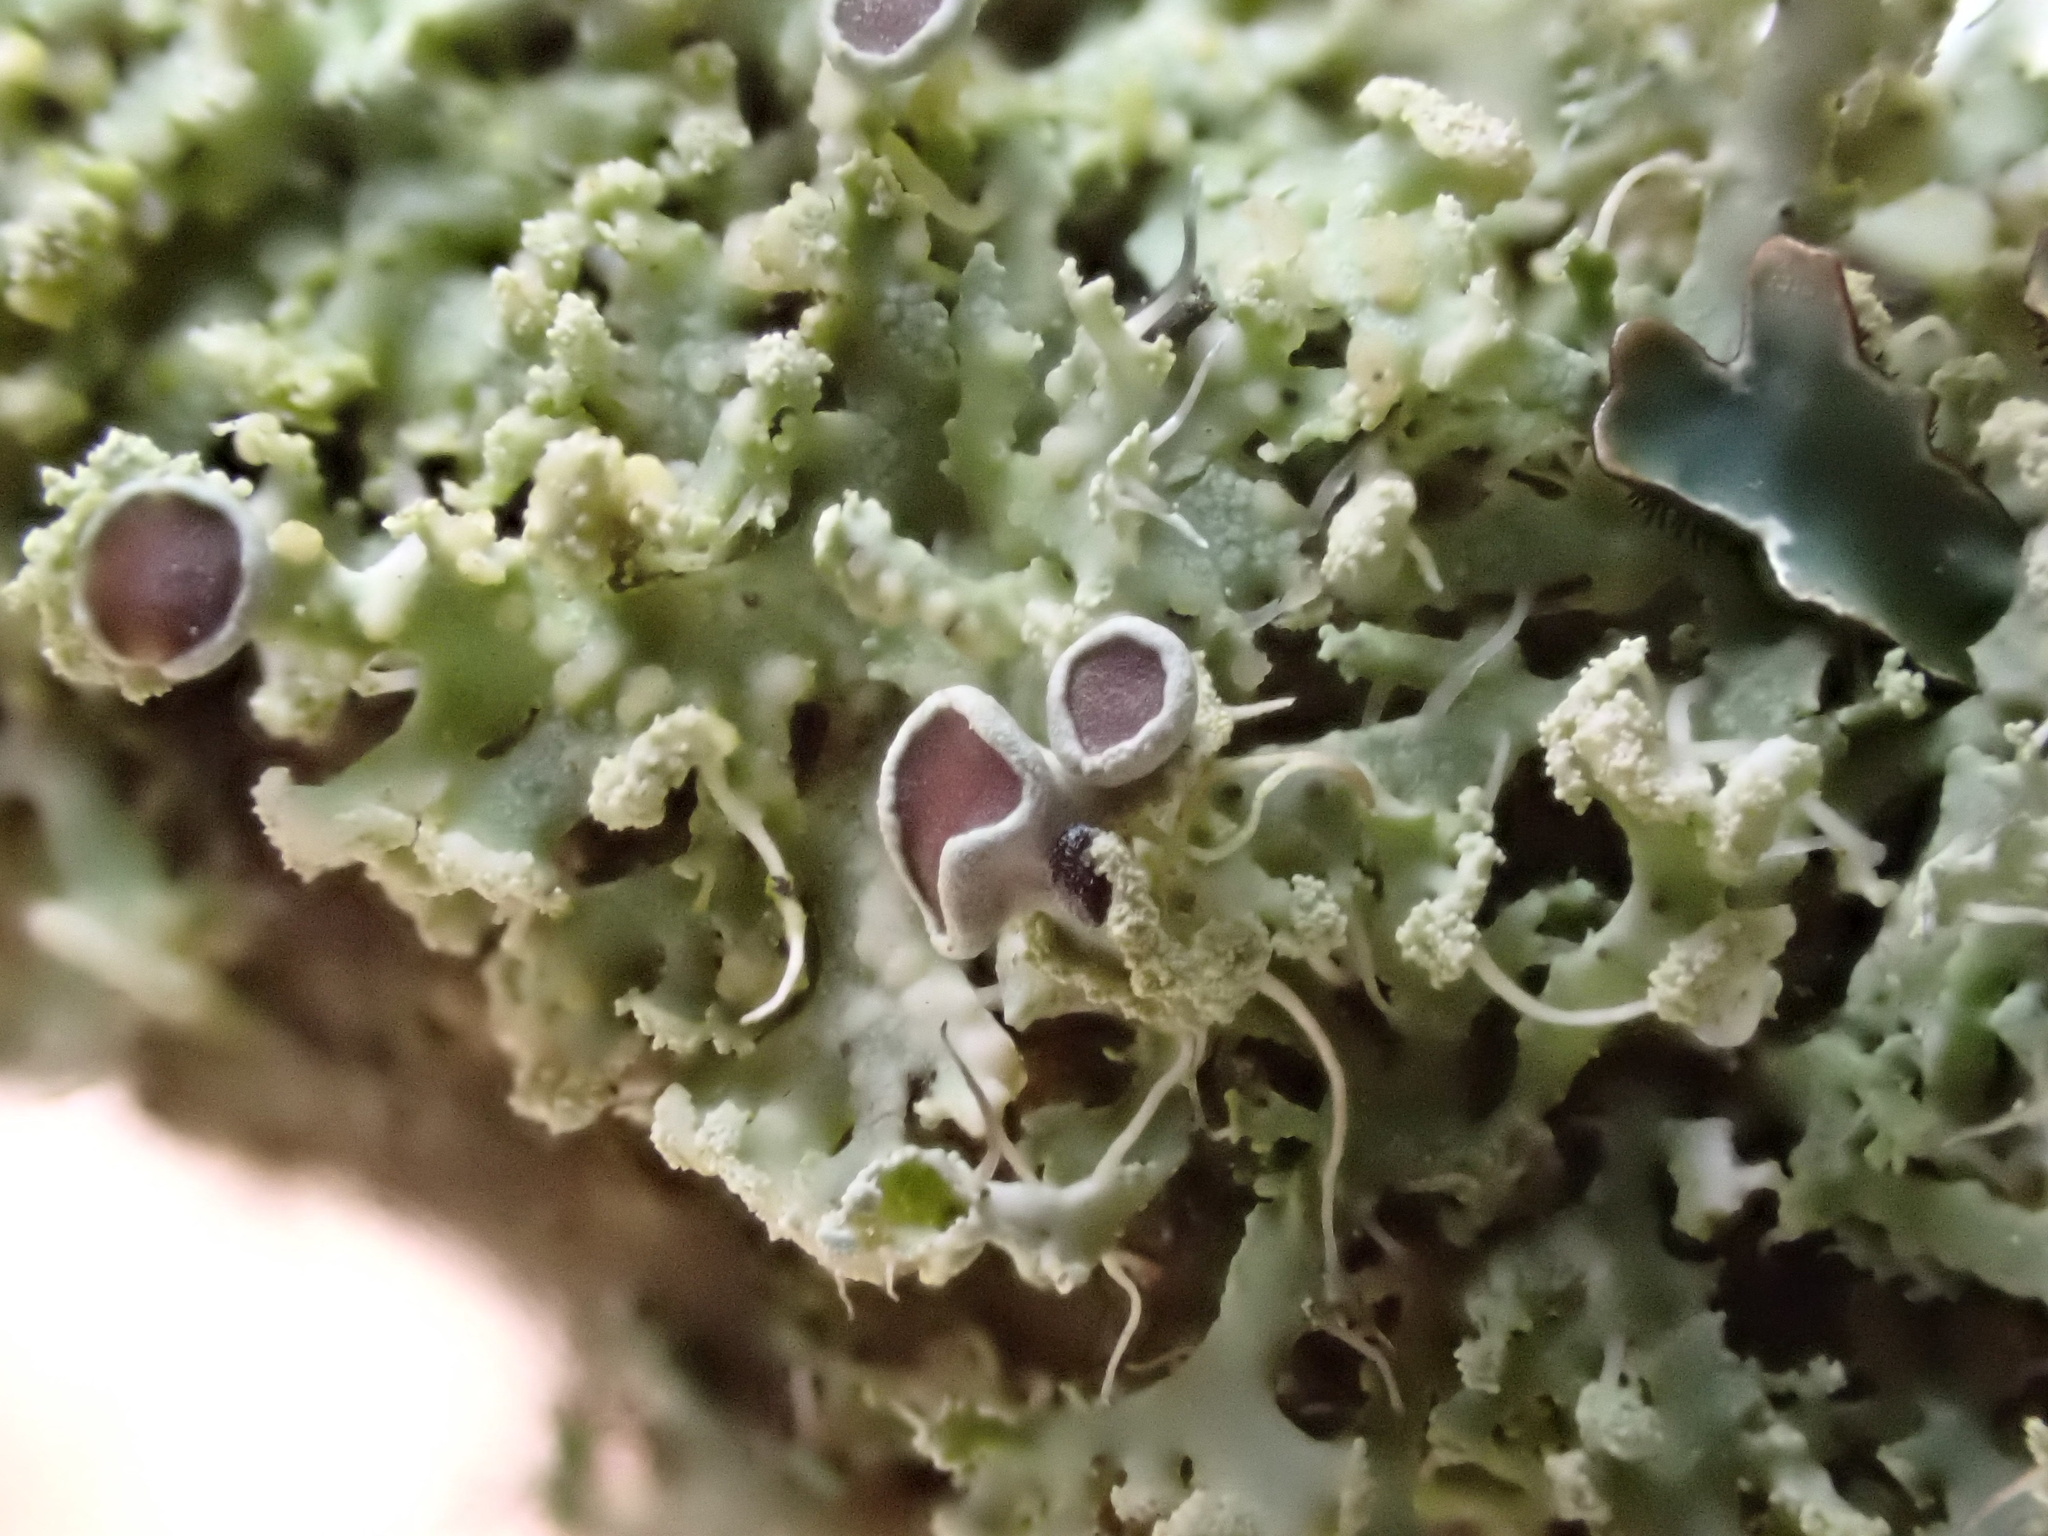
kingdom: Fungi
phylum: Ascomycota
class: Lecanoromycetes
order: Caliciales
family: Physciaceae
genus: Physcia
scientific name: Physcia tenella
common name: Fringed rosette lichen
